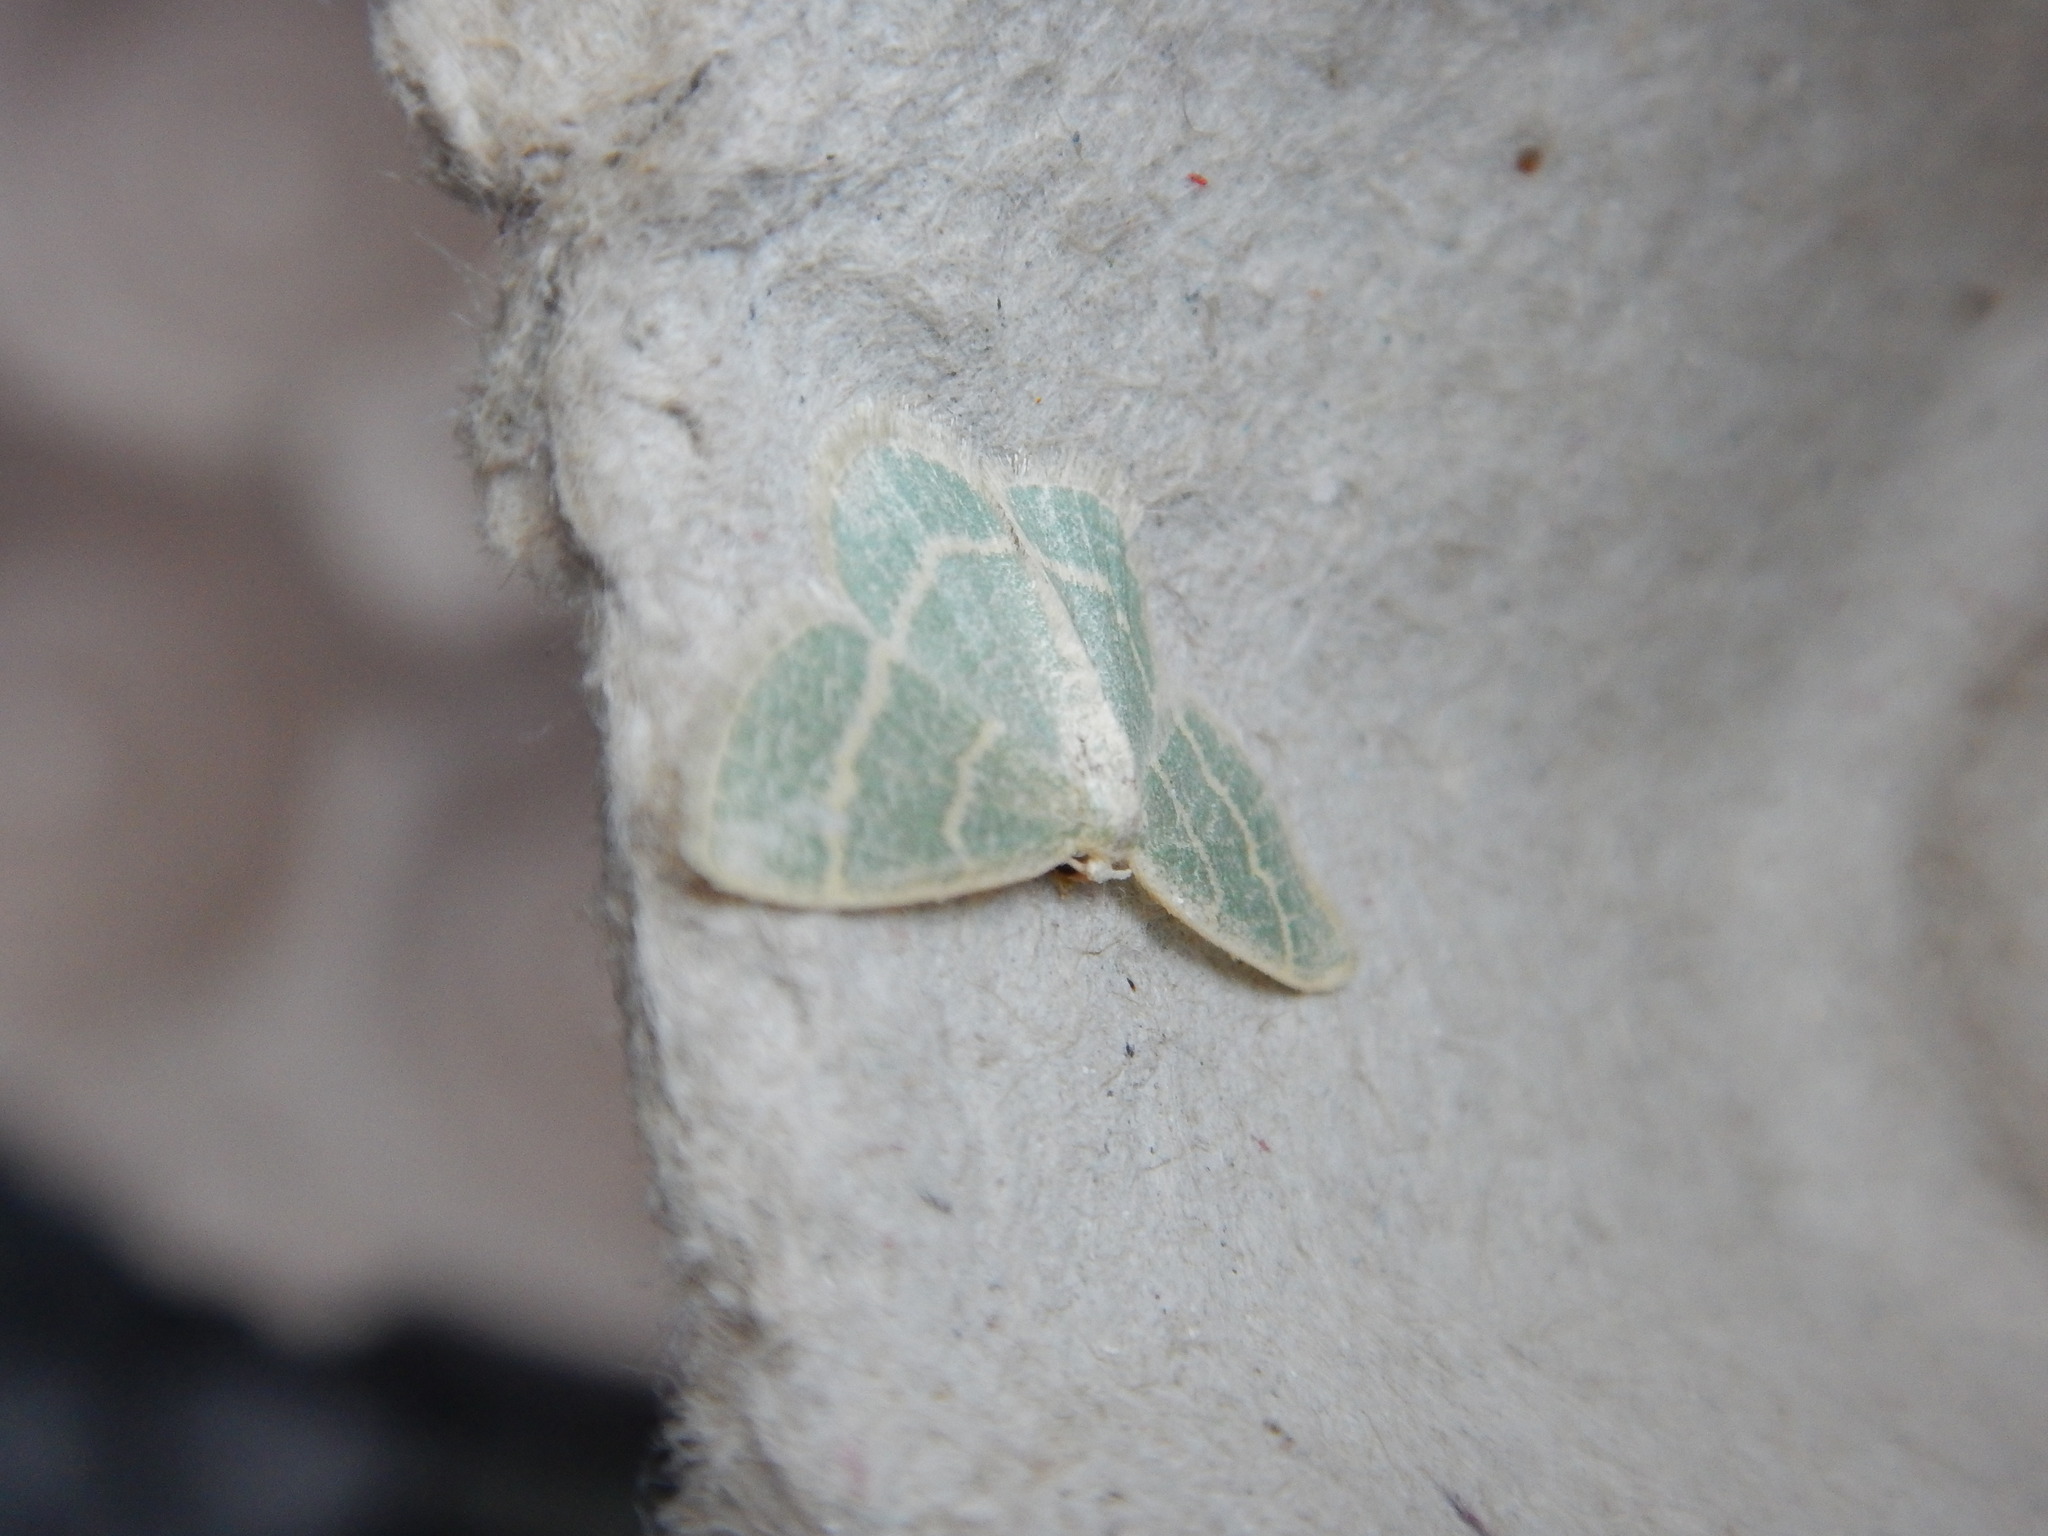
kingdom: Animalia
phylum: Arthropoda
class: Insecta
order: Lepidoptera
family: Geometridae
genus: Chlorochlamys
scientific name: Chlorochlamys chloroleucaria
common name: Blackberry looper
